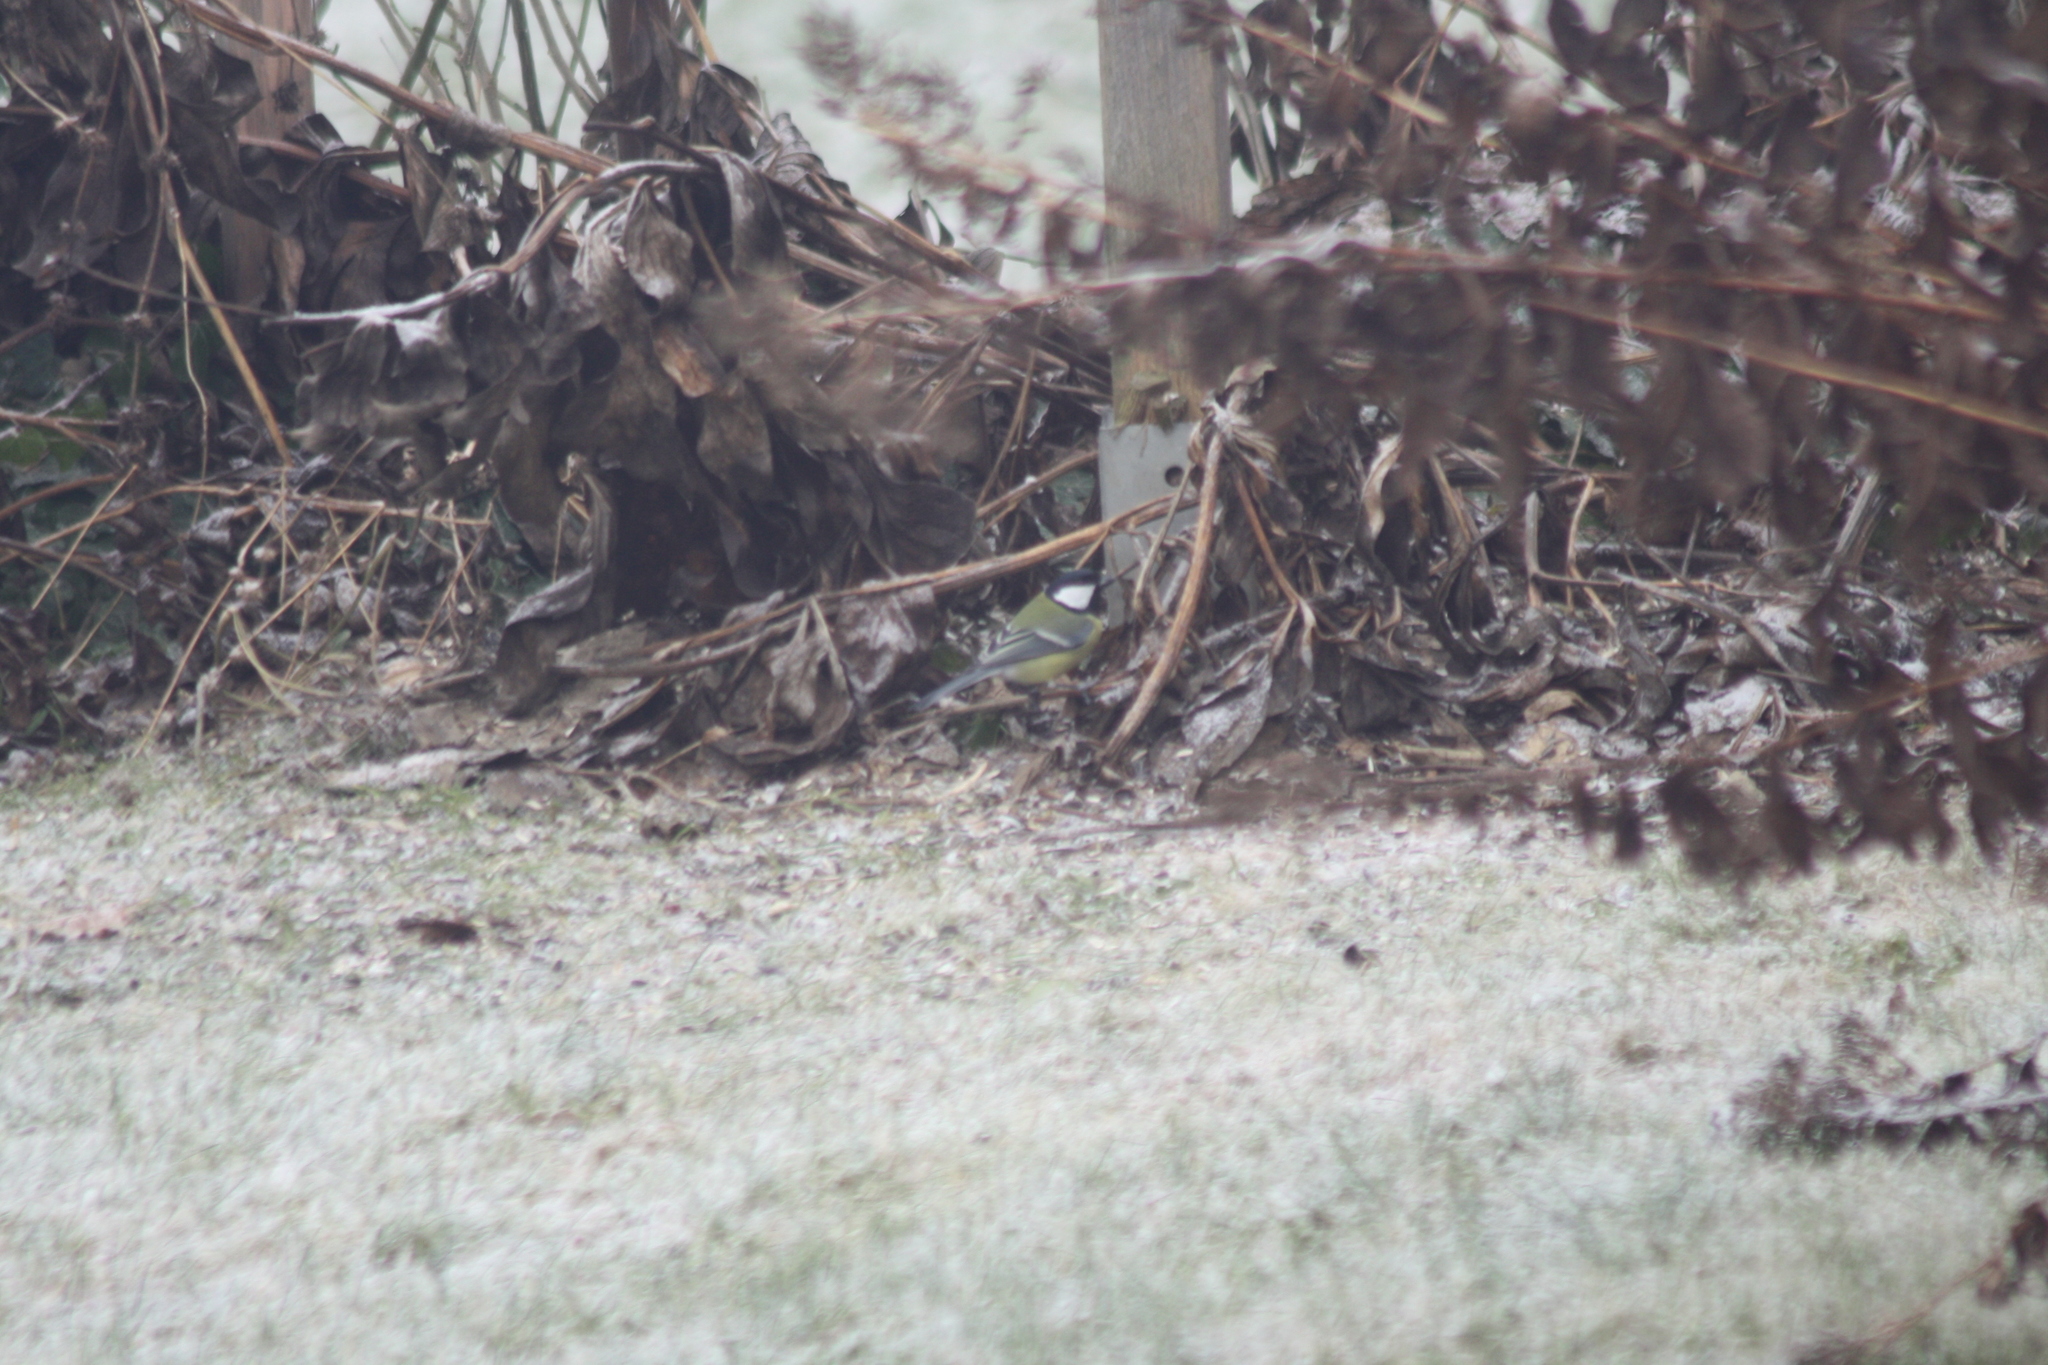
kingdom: Animalia
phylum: Chordata
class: Aves
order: Passeriformes
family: Paridae
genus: Parus
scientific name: Parus major
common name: Great tit
